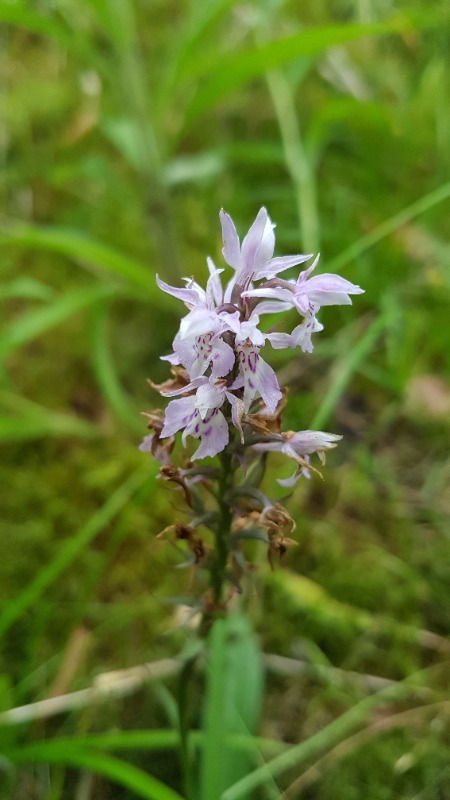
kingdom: Plantae
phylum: Tracheophyta
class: Liliopsida
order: Asparagales
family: Orchidaceae
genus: Dactylorhiza
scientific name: Dactylorhiza maculata
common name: Heath spotted-orchid
